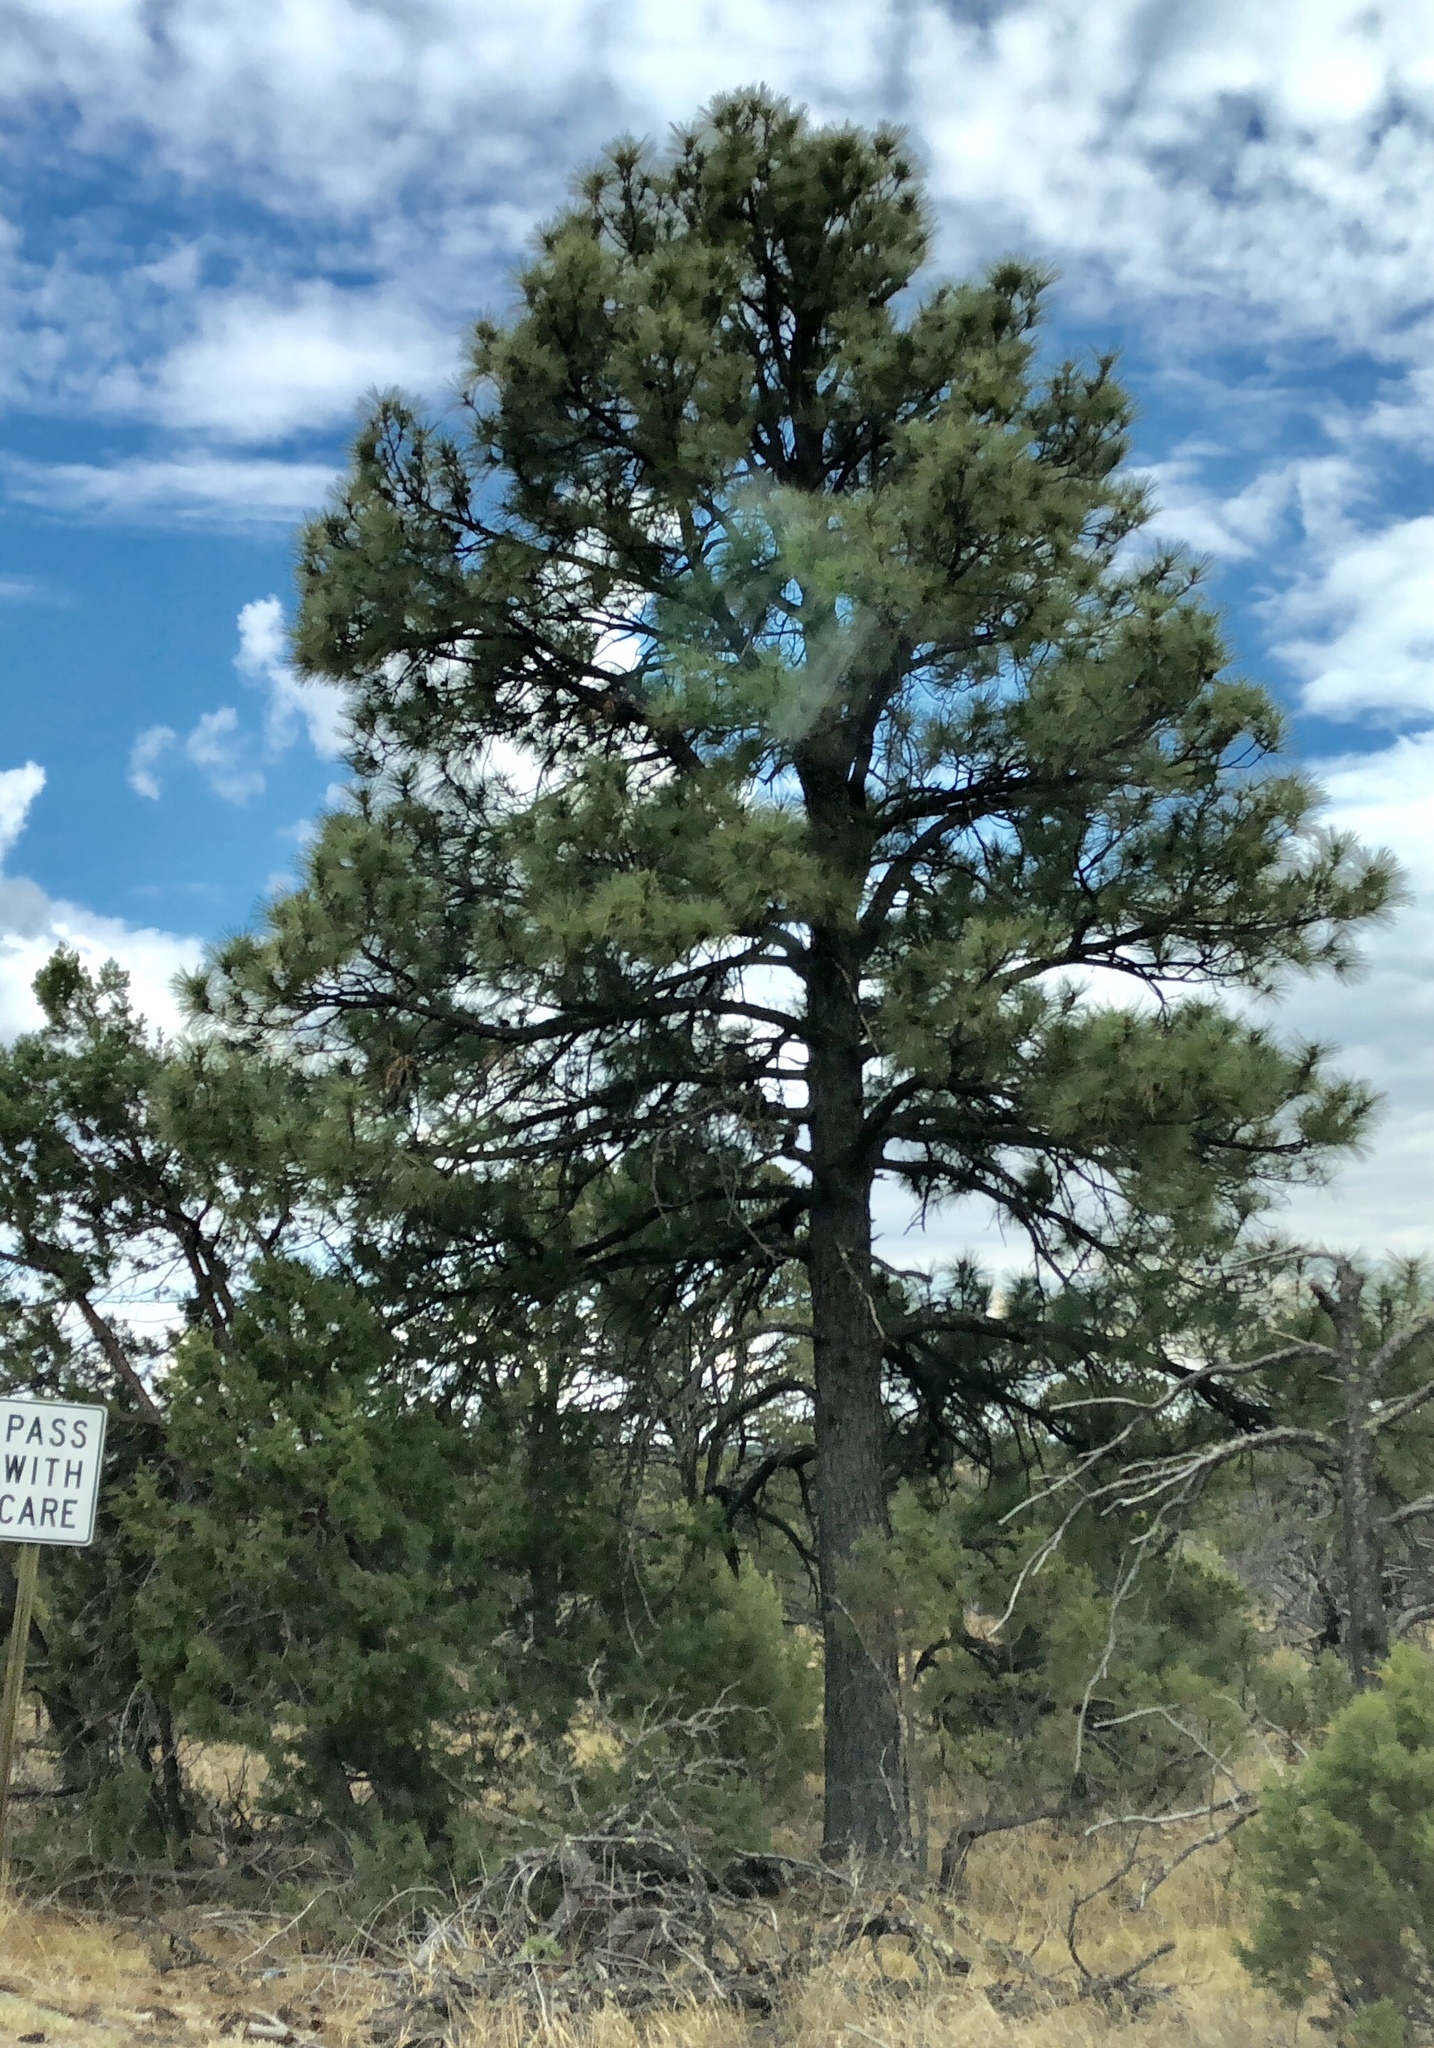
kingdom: Plantae
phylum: Tracheophyta
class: Pinopsida
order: Pinales
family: Pinaceae
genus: Pinus
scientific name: Pinus ponderosa
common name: Western yellow-pine
